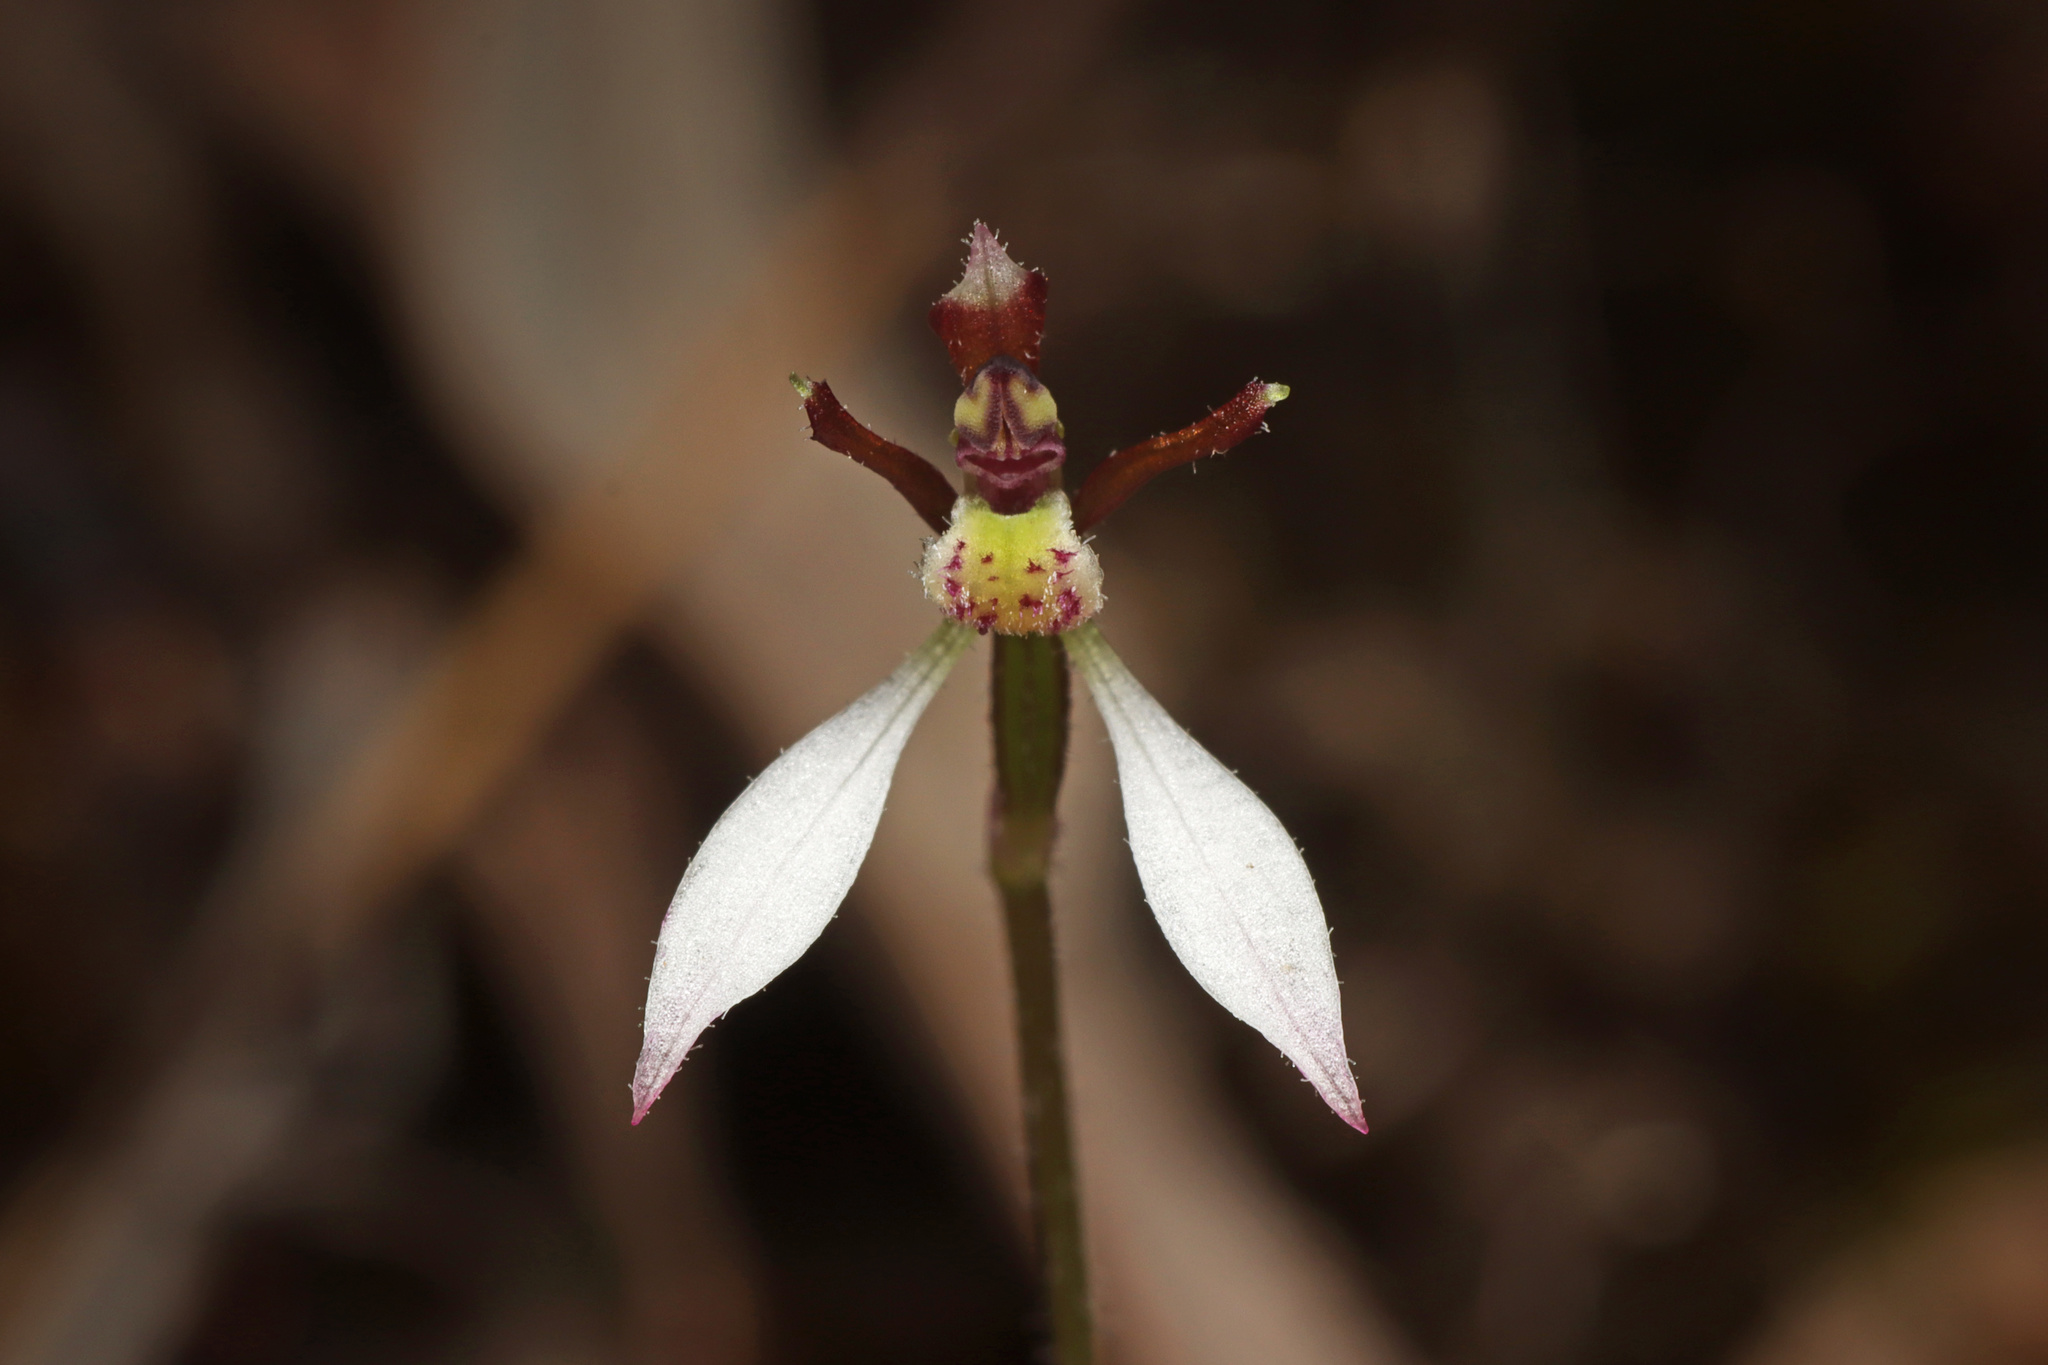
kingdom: Plantae
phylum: Tracheophyta
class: Liliopsida
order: Asparagales
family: Orchidaceae
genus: Eriochilus
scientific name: Eriochilus collinus
